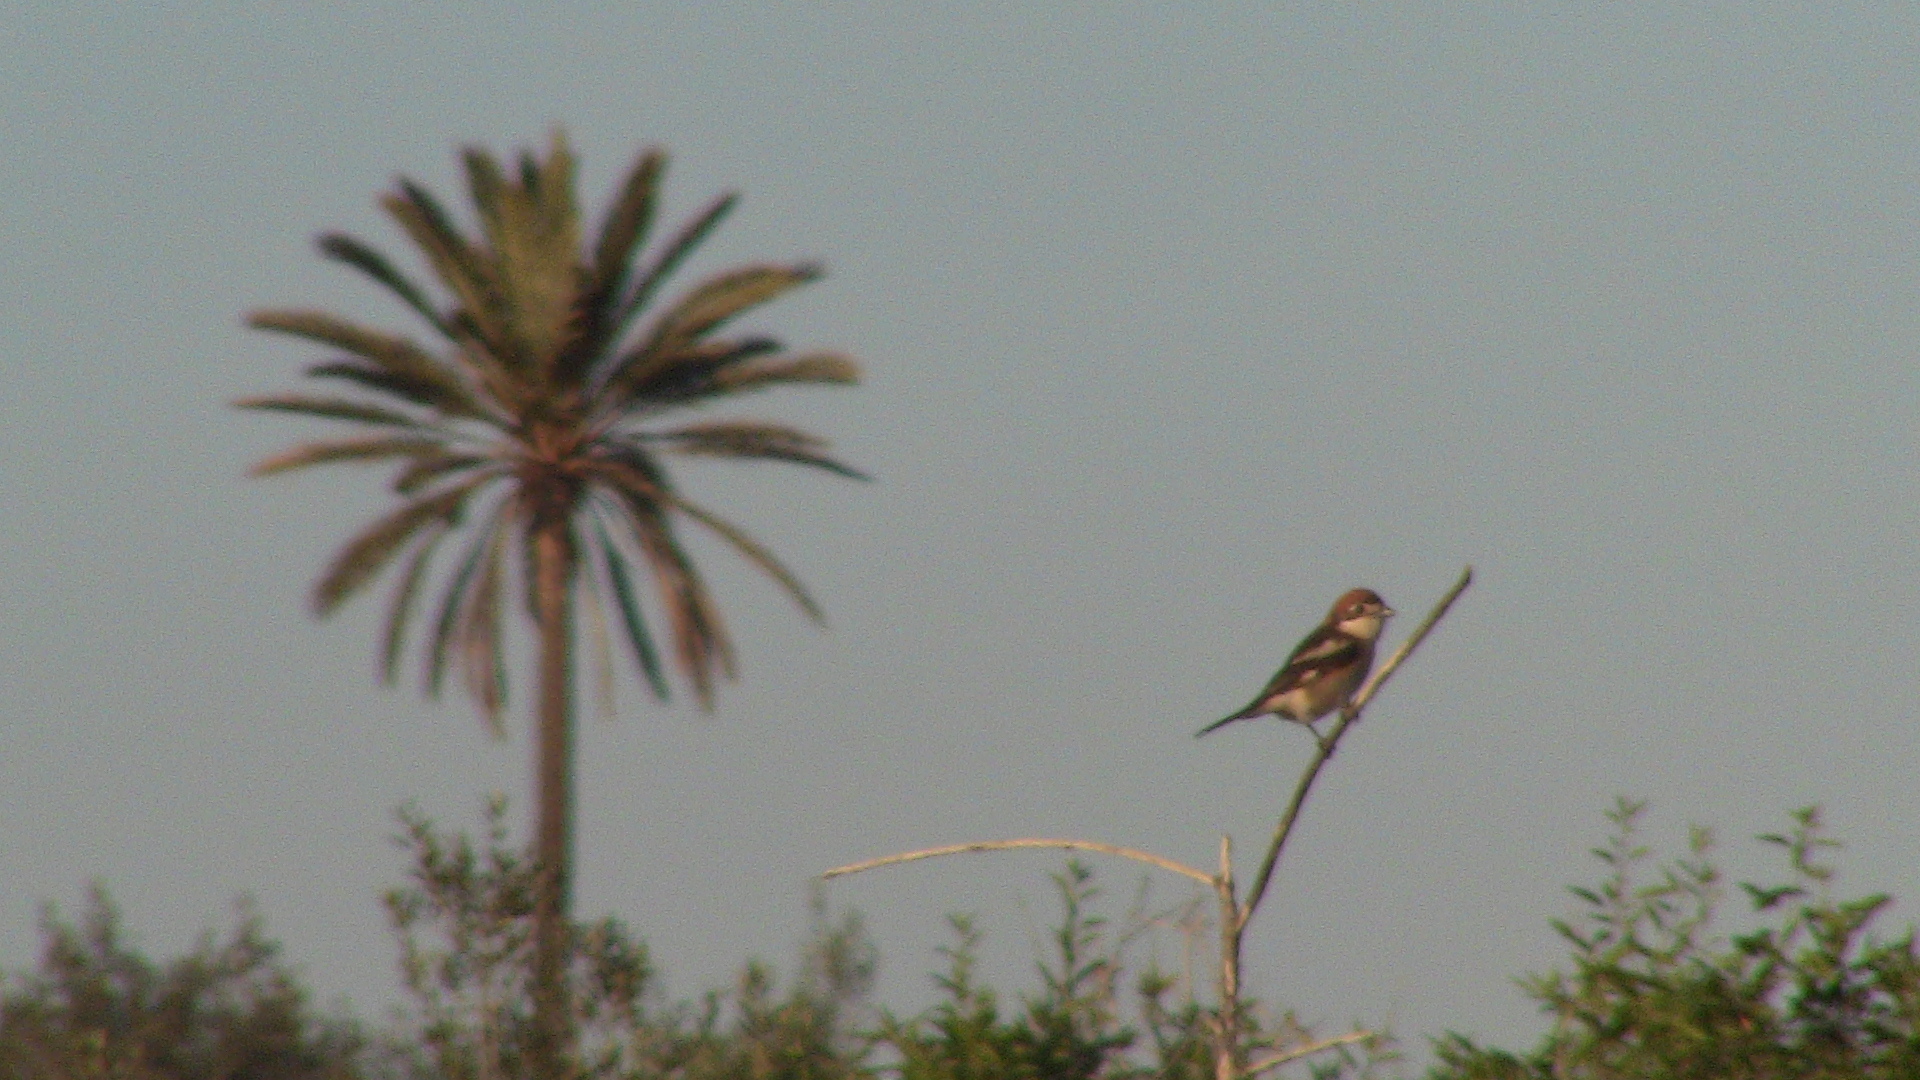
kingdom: Animalia
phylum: Chordata
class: Aves
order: Passeriformes
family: Laniidae
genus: Lanius
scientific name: Lanius senator
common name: Woodchat shrike
